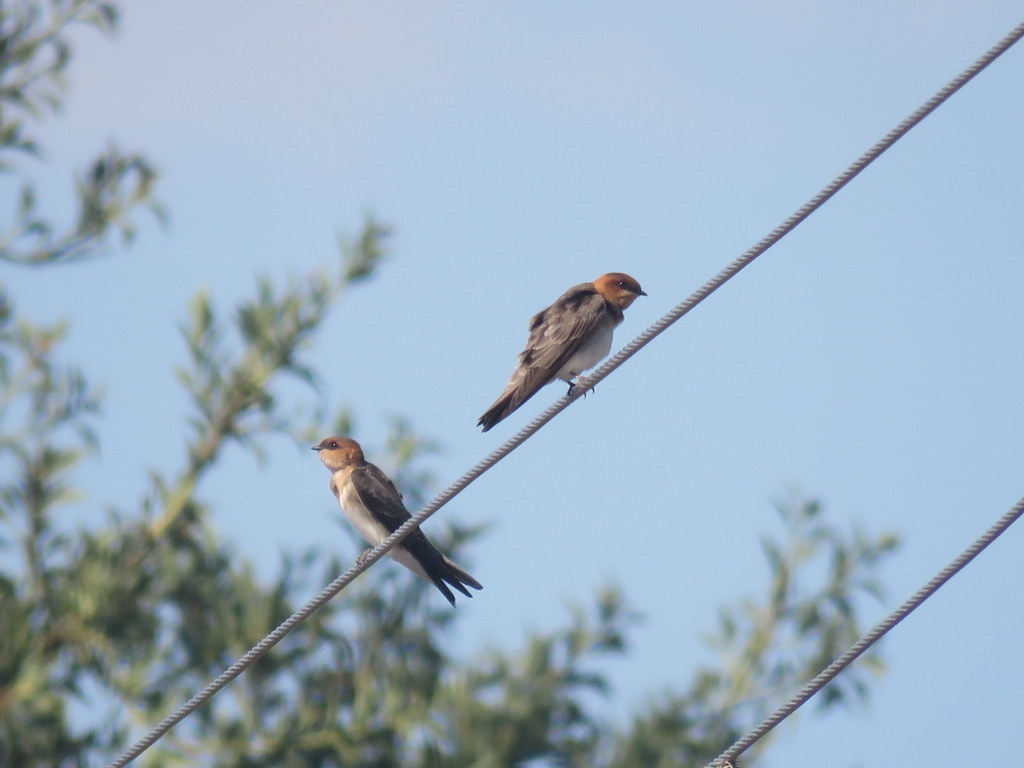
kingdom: Animalia
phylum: Chordata
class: Aves
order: Passeriformes
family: Hirundinidae
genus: Alopochelidon
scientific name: Alopochelidon fucata
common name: Tawny-headed swallow
